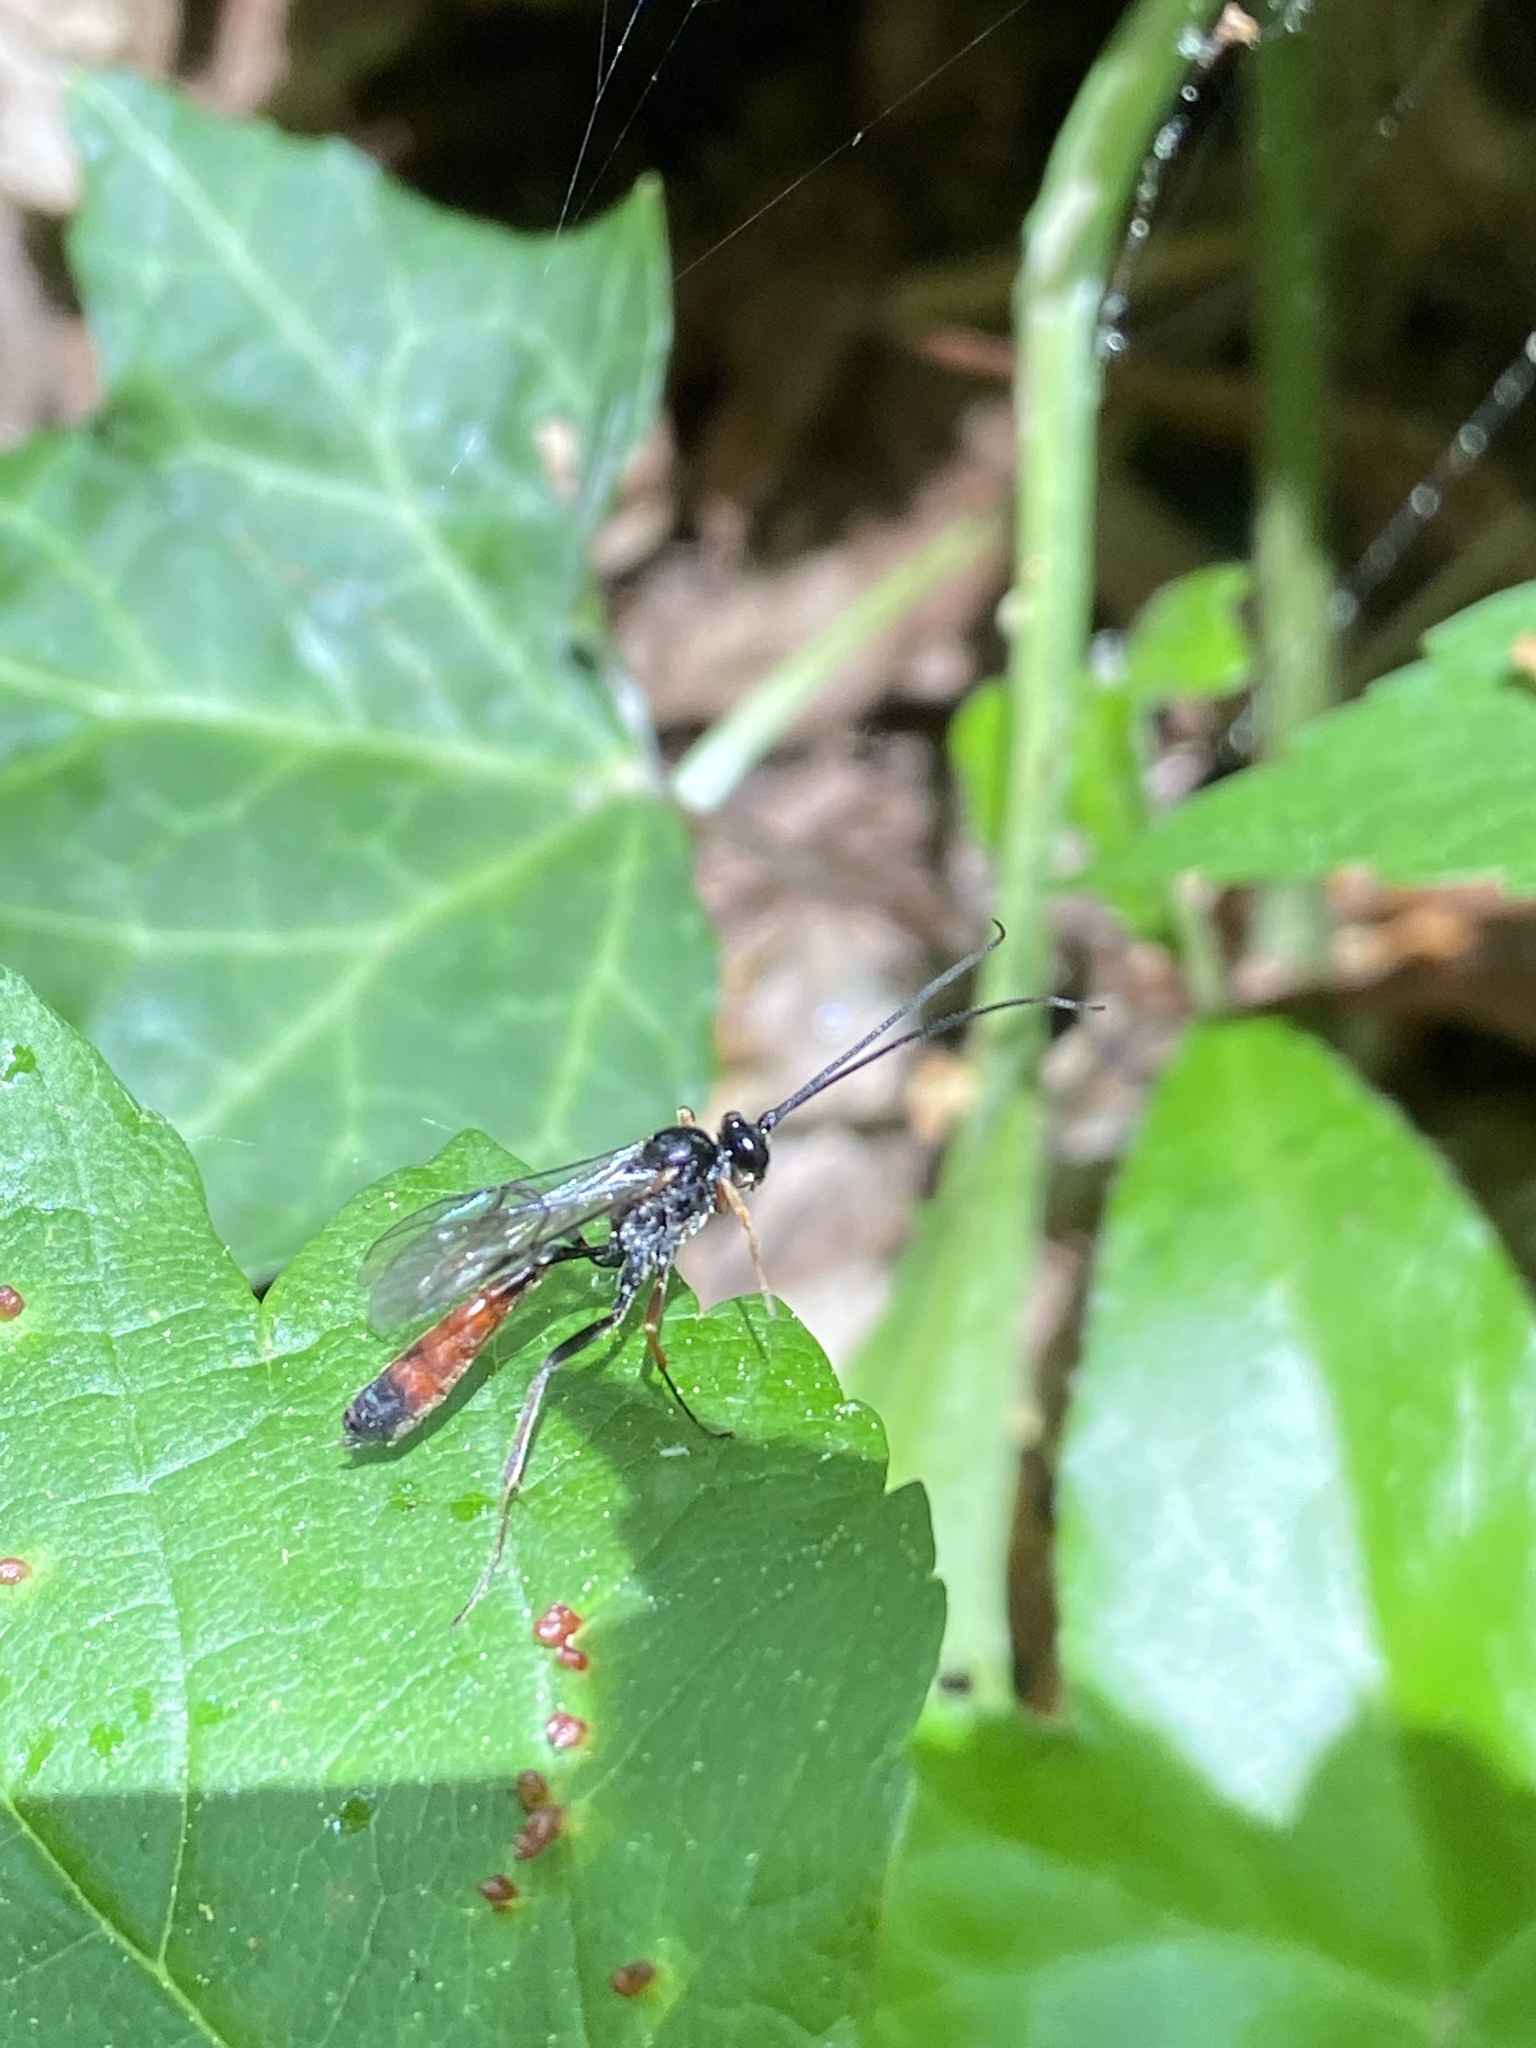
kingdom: Animalia
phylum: Arthropoda
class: Insecta
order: Hymenoptera
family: Ichneumonidae
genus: Dusona
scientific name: Dusona bicoloripes
